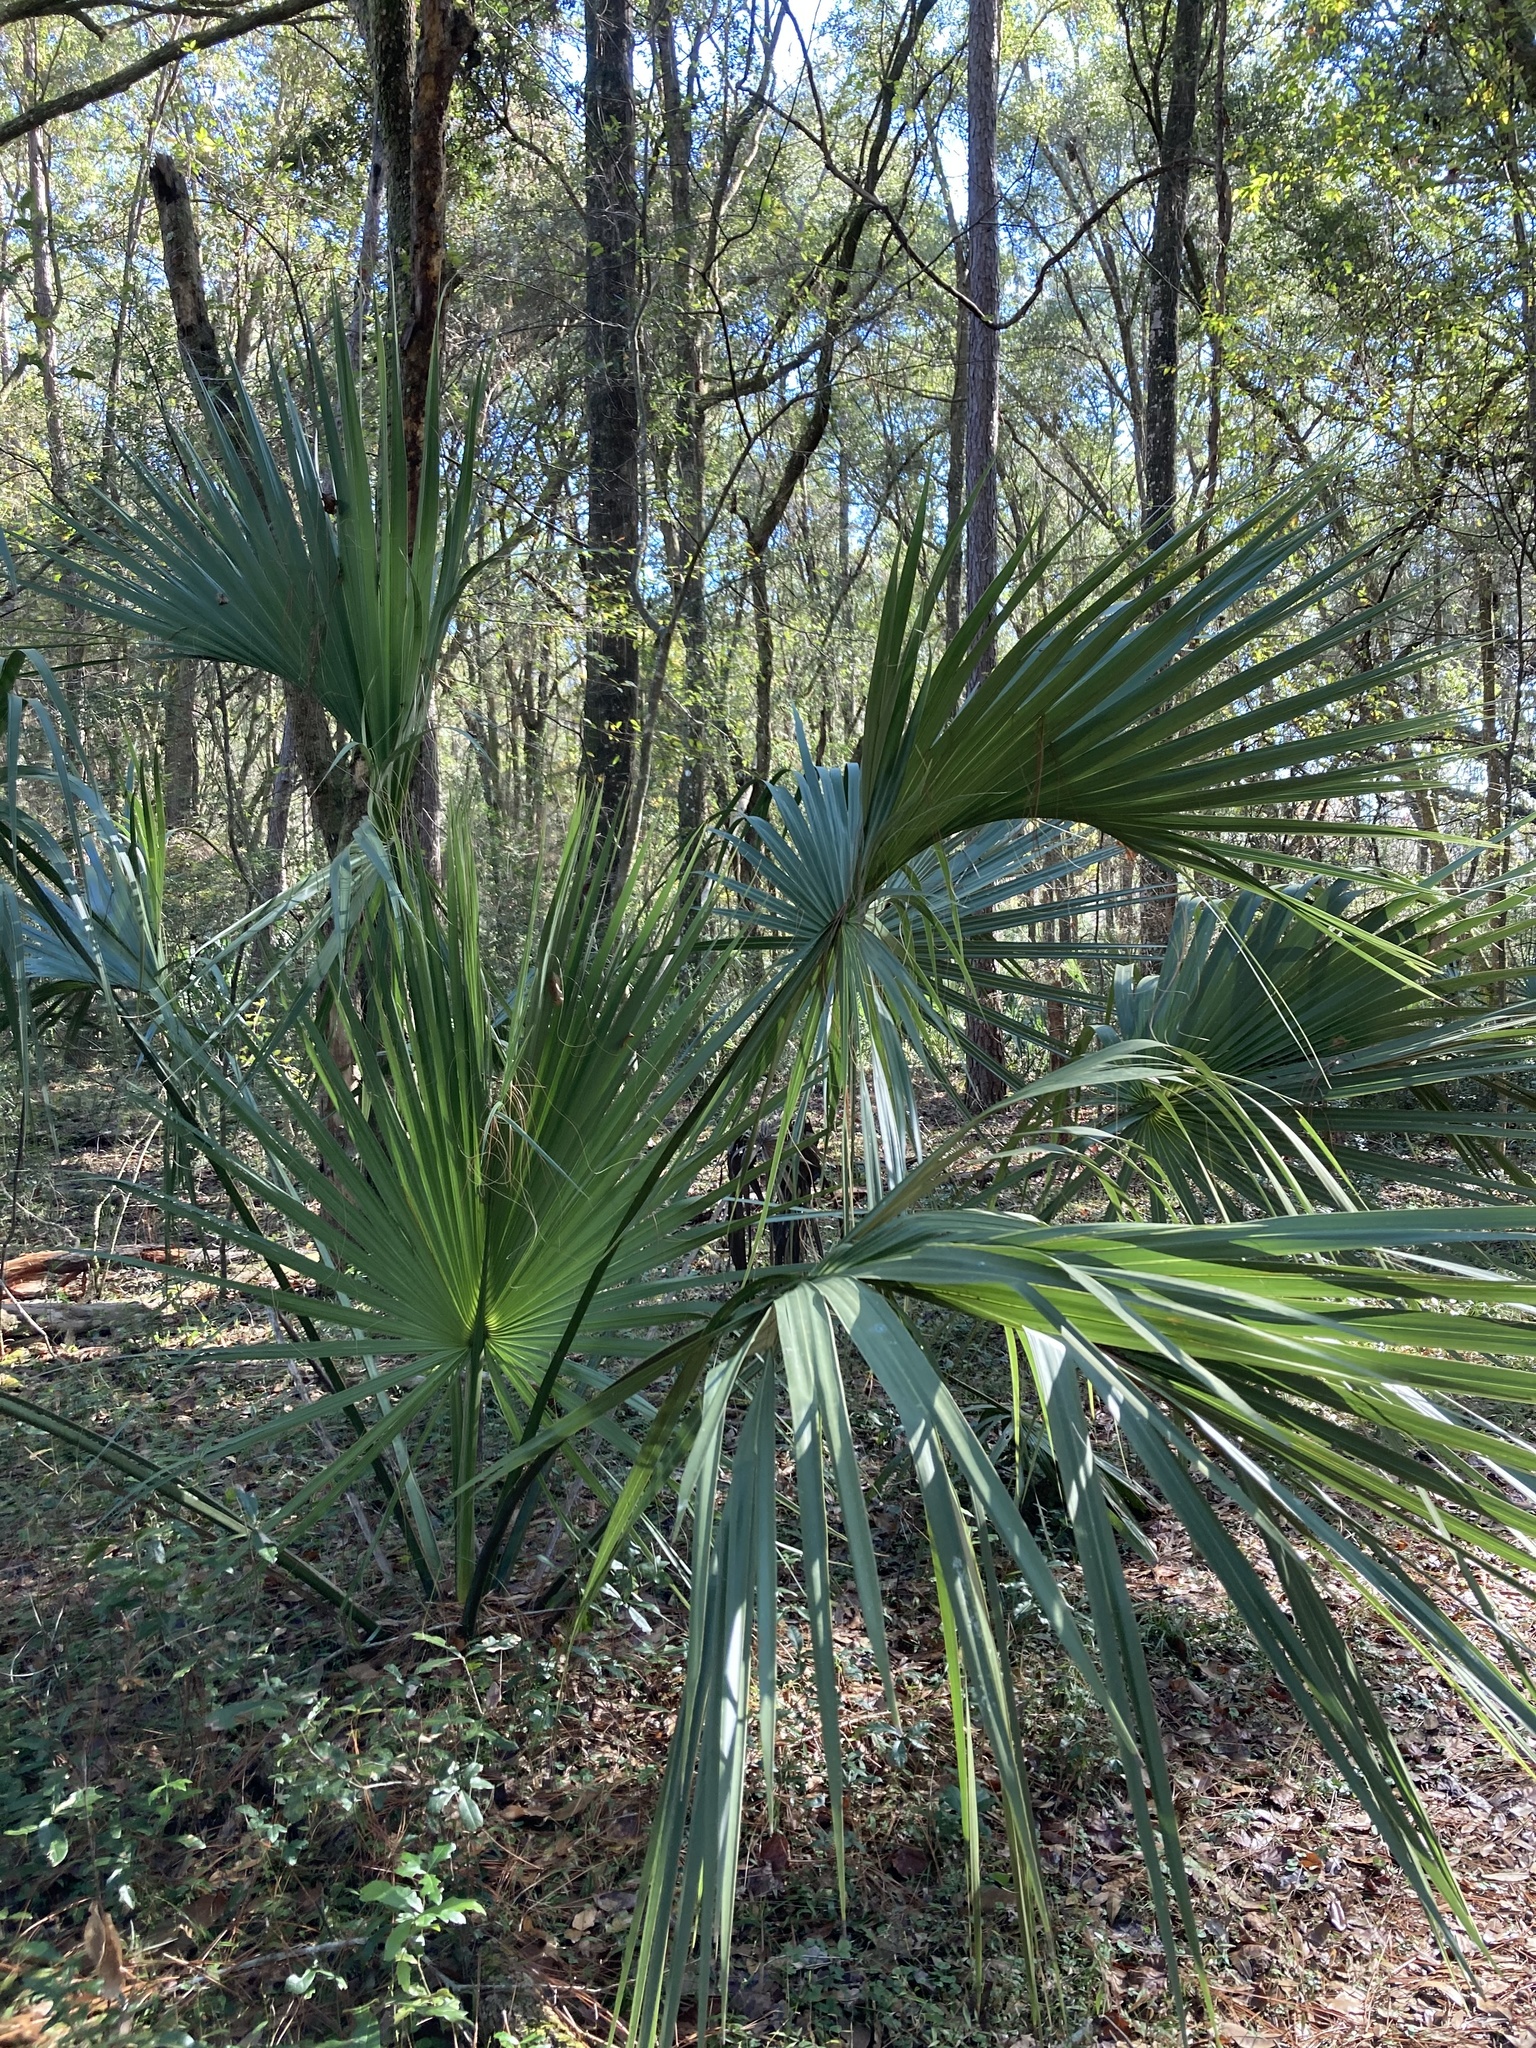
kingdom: Plantae
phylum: Tracheophyta
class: Liliopsida
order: Arecales
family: Arecaceae
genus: Sabal
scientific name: Sabal palmetto
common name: Blue palmetto
